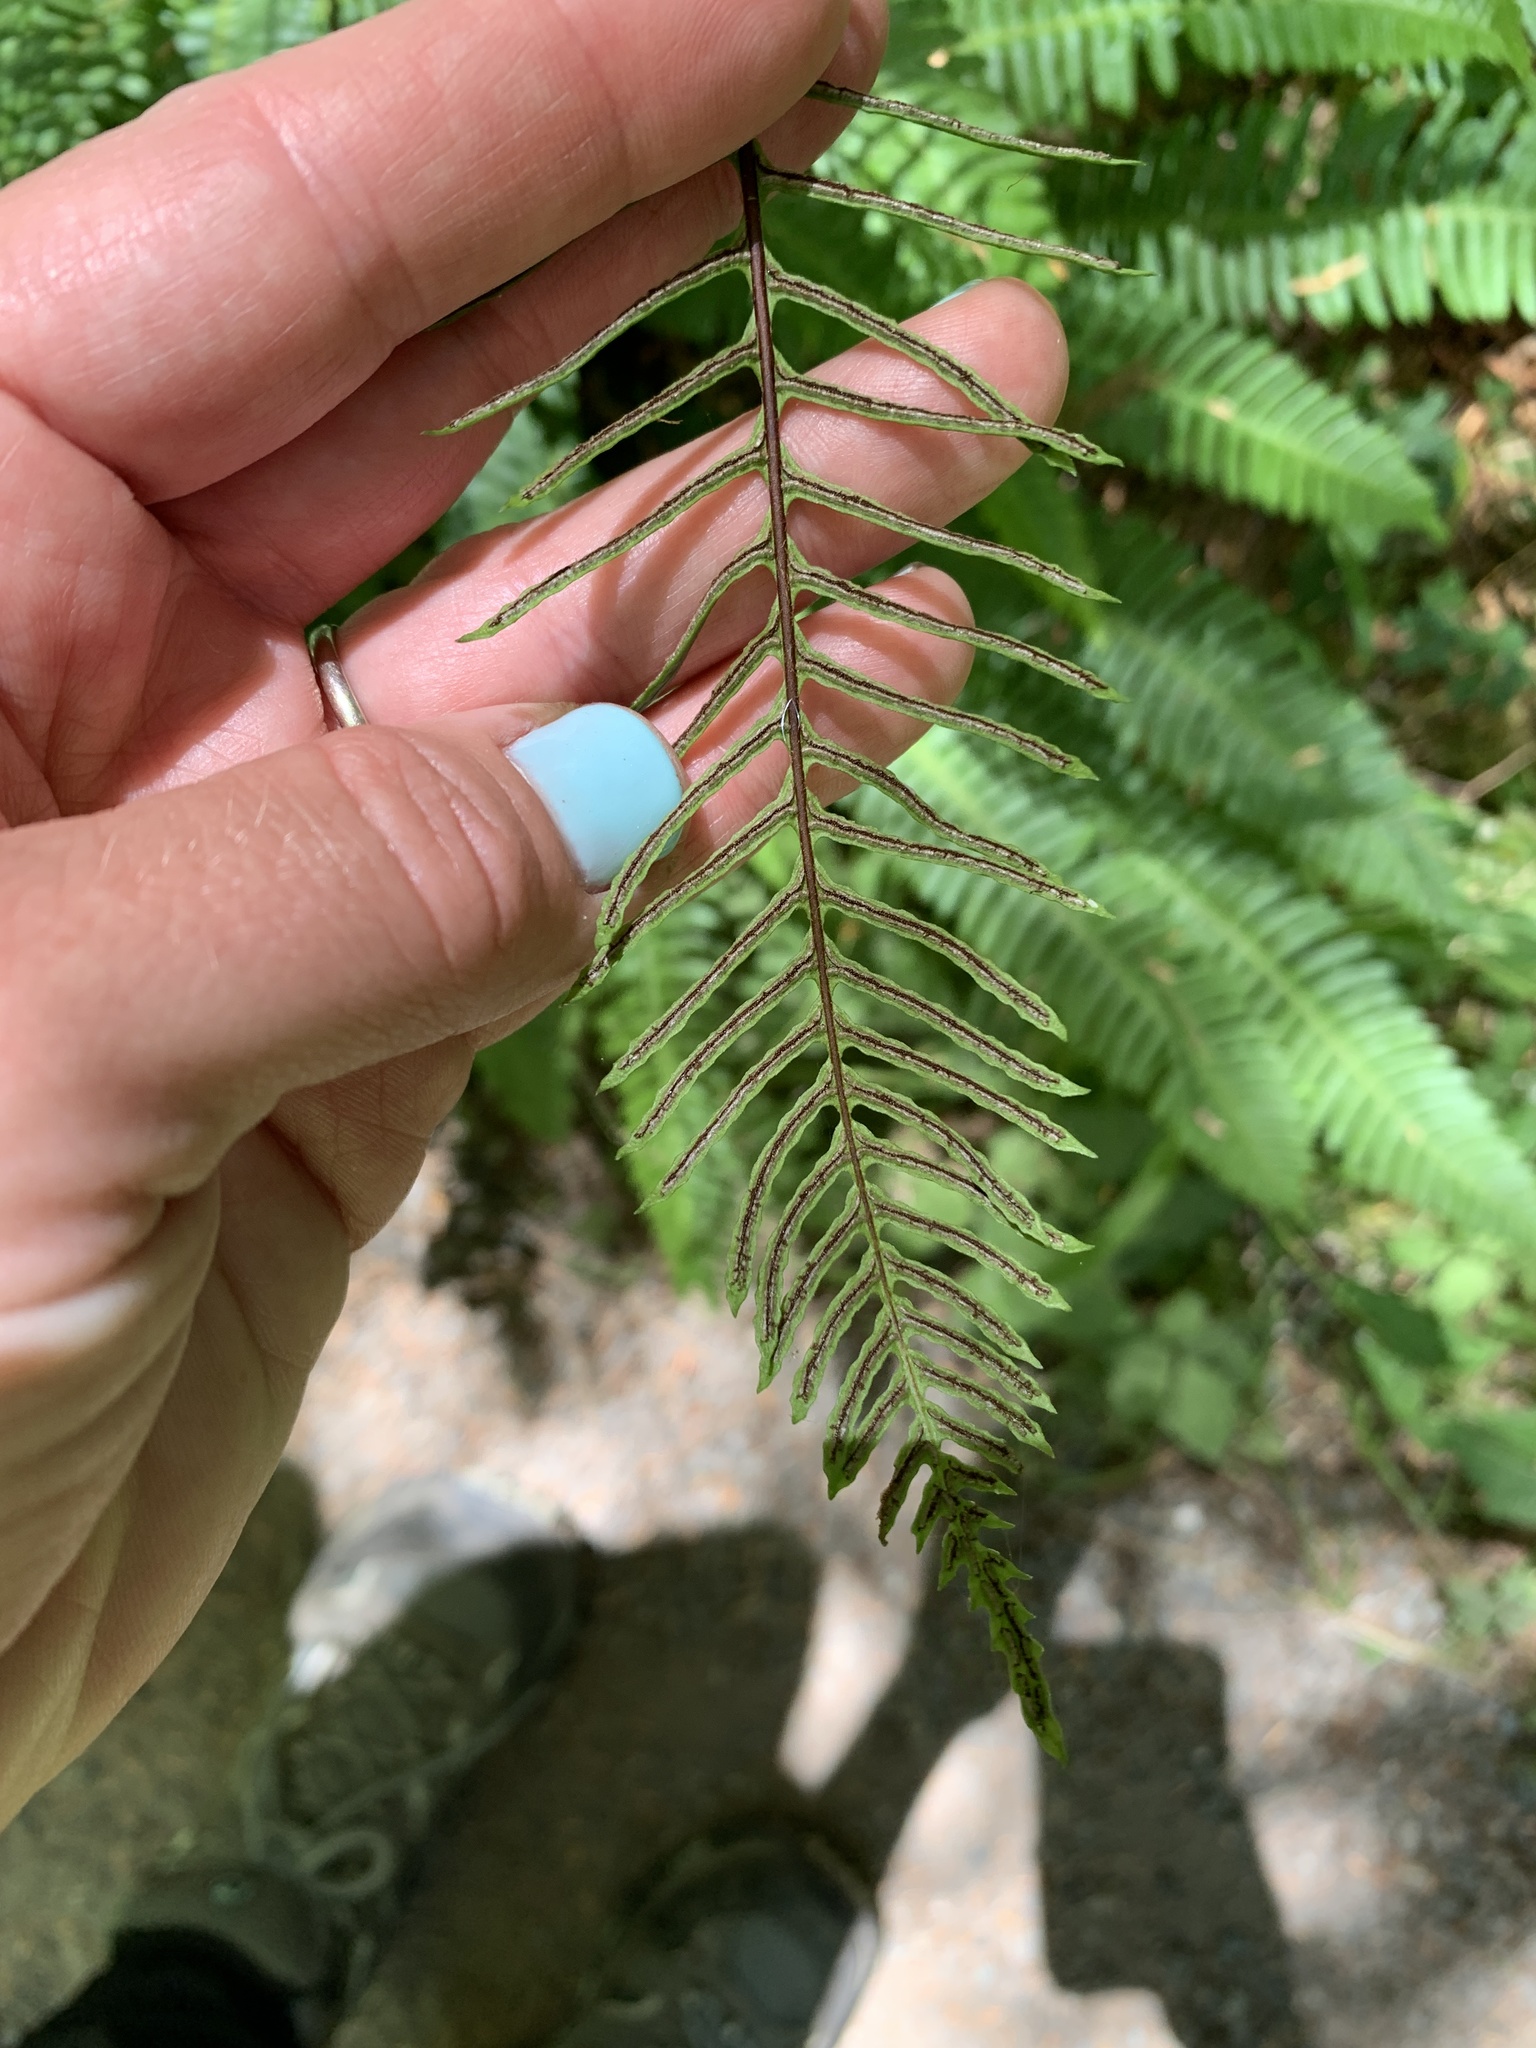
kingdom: Plantae
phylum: Tracheophyta
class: Polypodiopsida
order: Polypodiales
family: Blechnaceae
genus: Struthiopteris
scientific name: Struthiopteris spicant
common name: Deer fern
